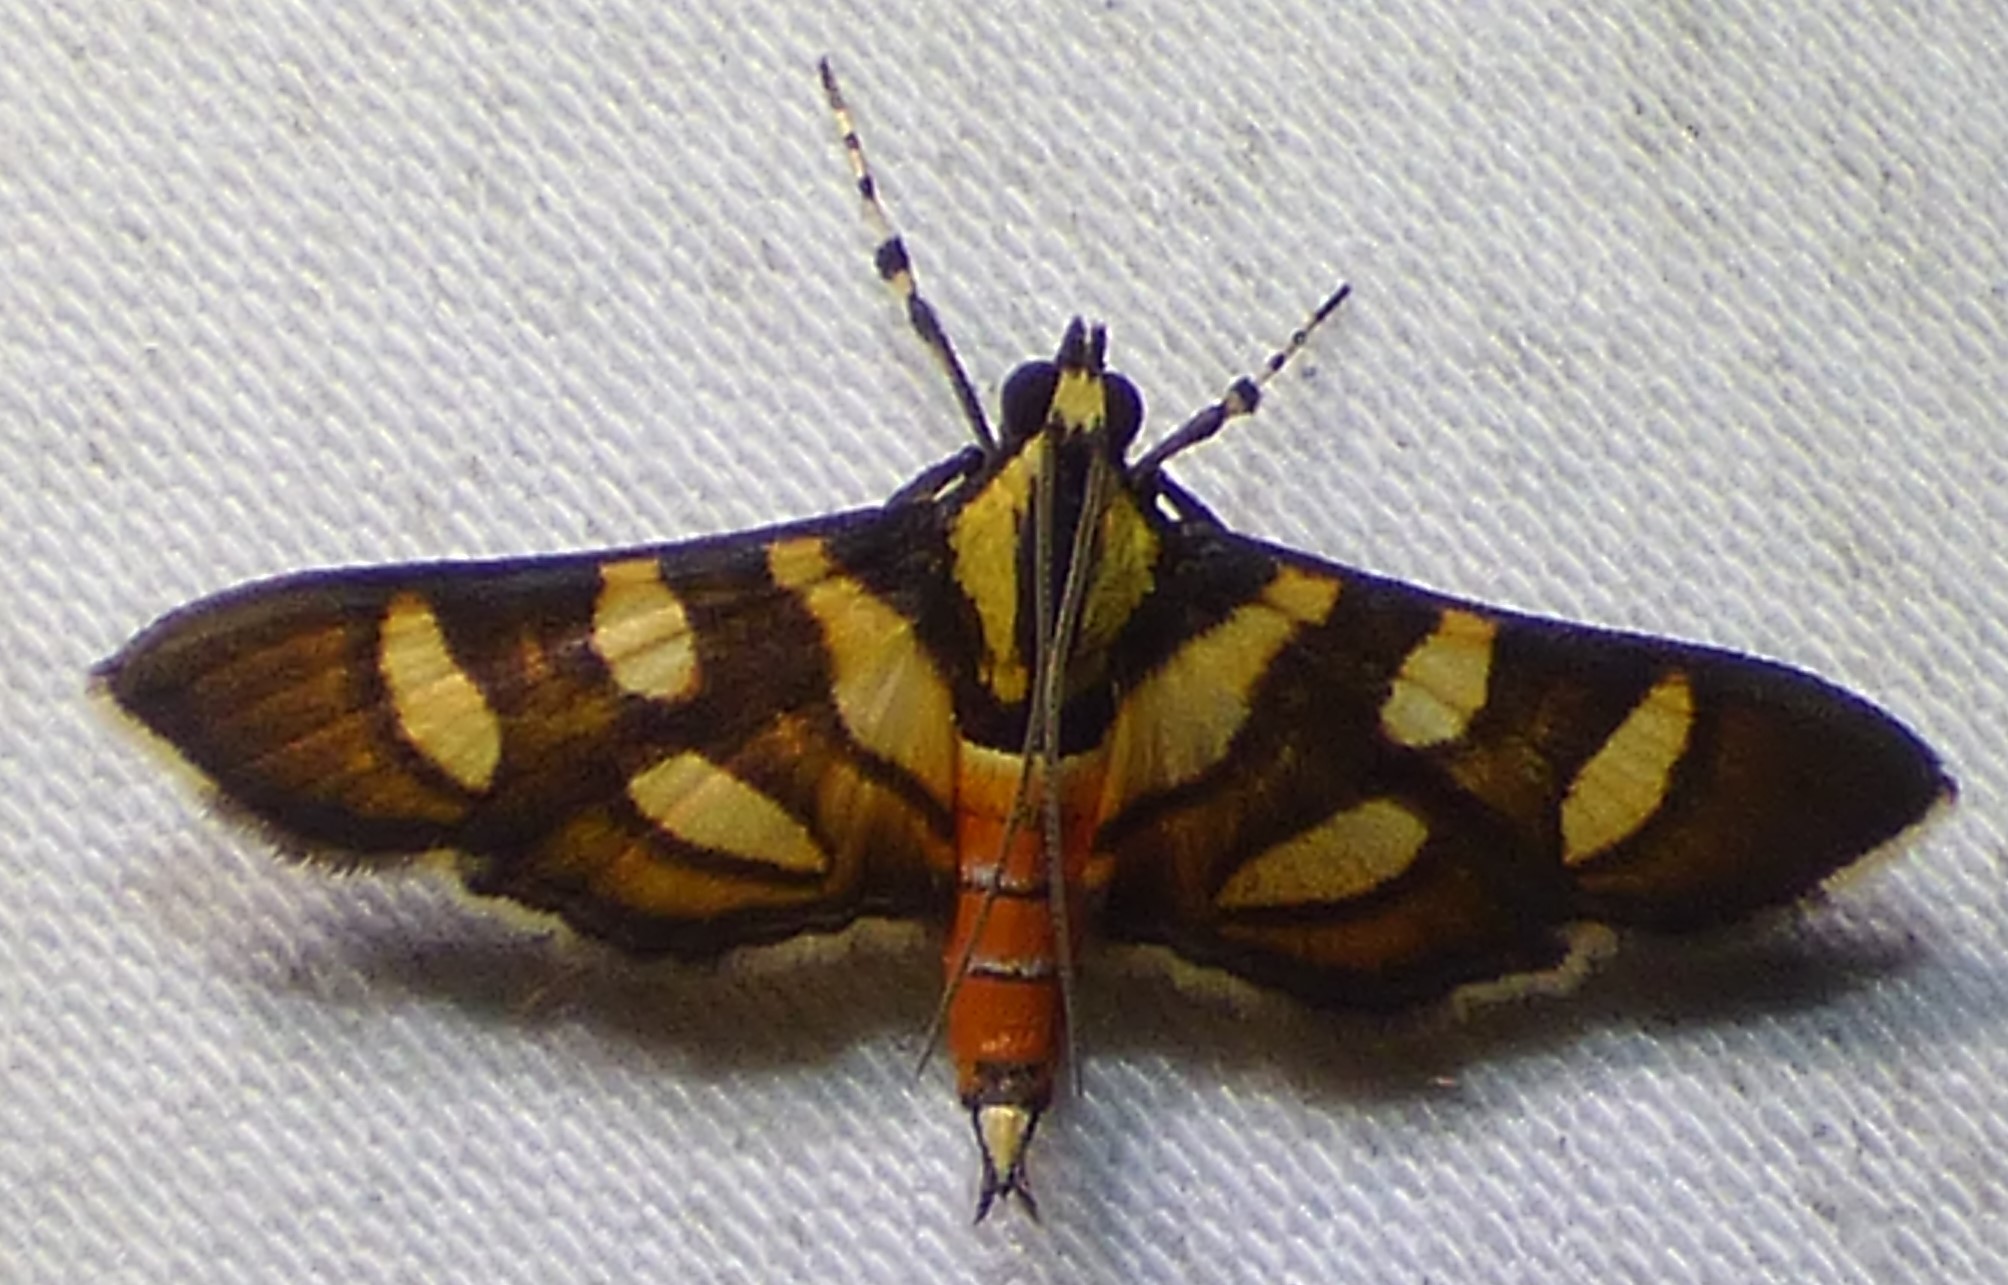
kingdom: Animalia
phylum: Arthropoda
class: Insecta
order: Lepidoptera
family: Crambidae
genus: Syngamia
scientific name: Syngamia florella
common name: Orange-spotted flower moth
